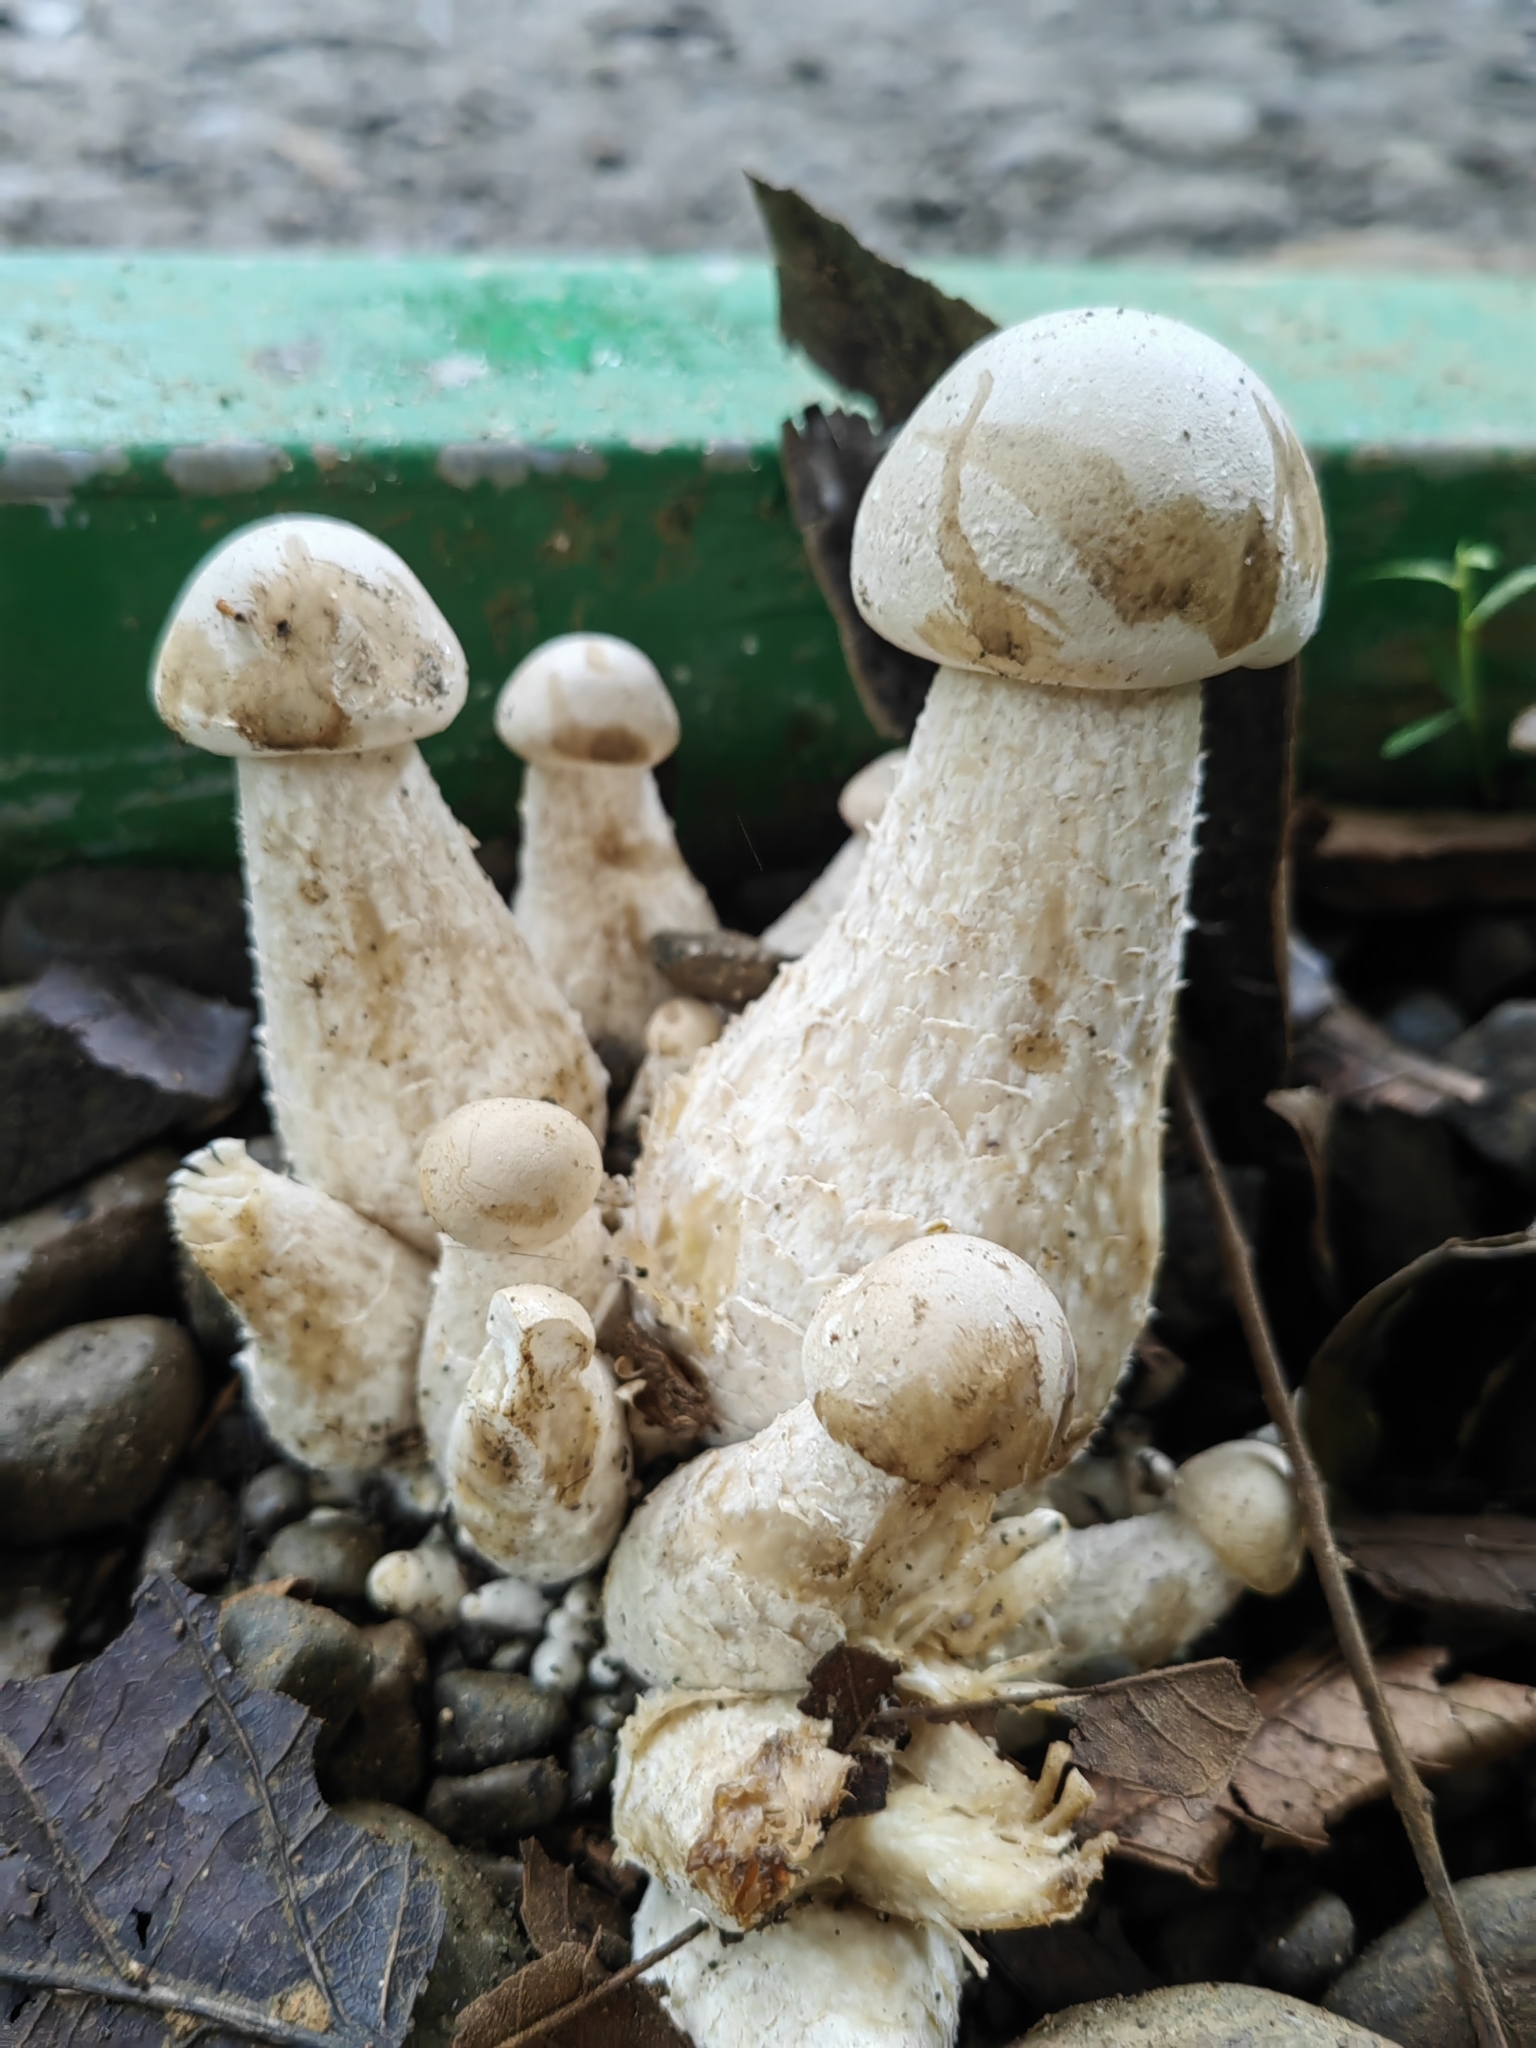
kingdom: Fungi
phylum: Basidiomycota
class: Agaricomycetes
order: Agaricales
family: Callistosporiaceae
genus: Macrocybe
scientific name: Macrocybe titans
